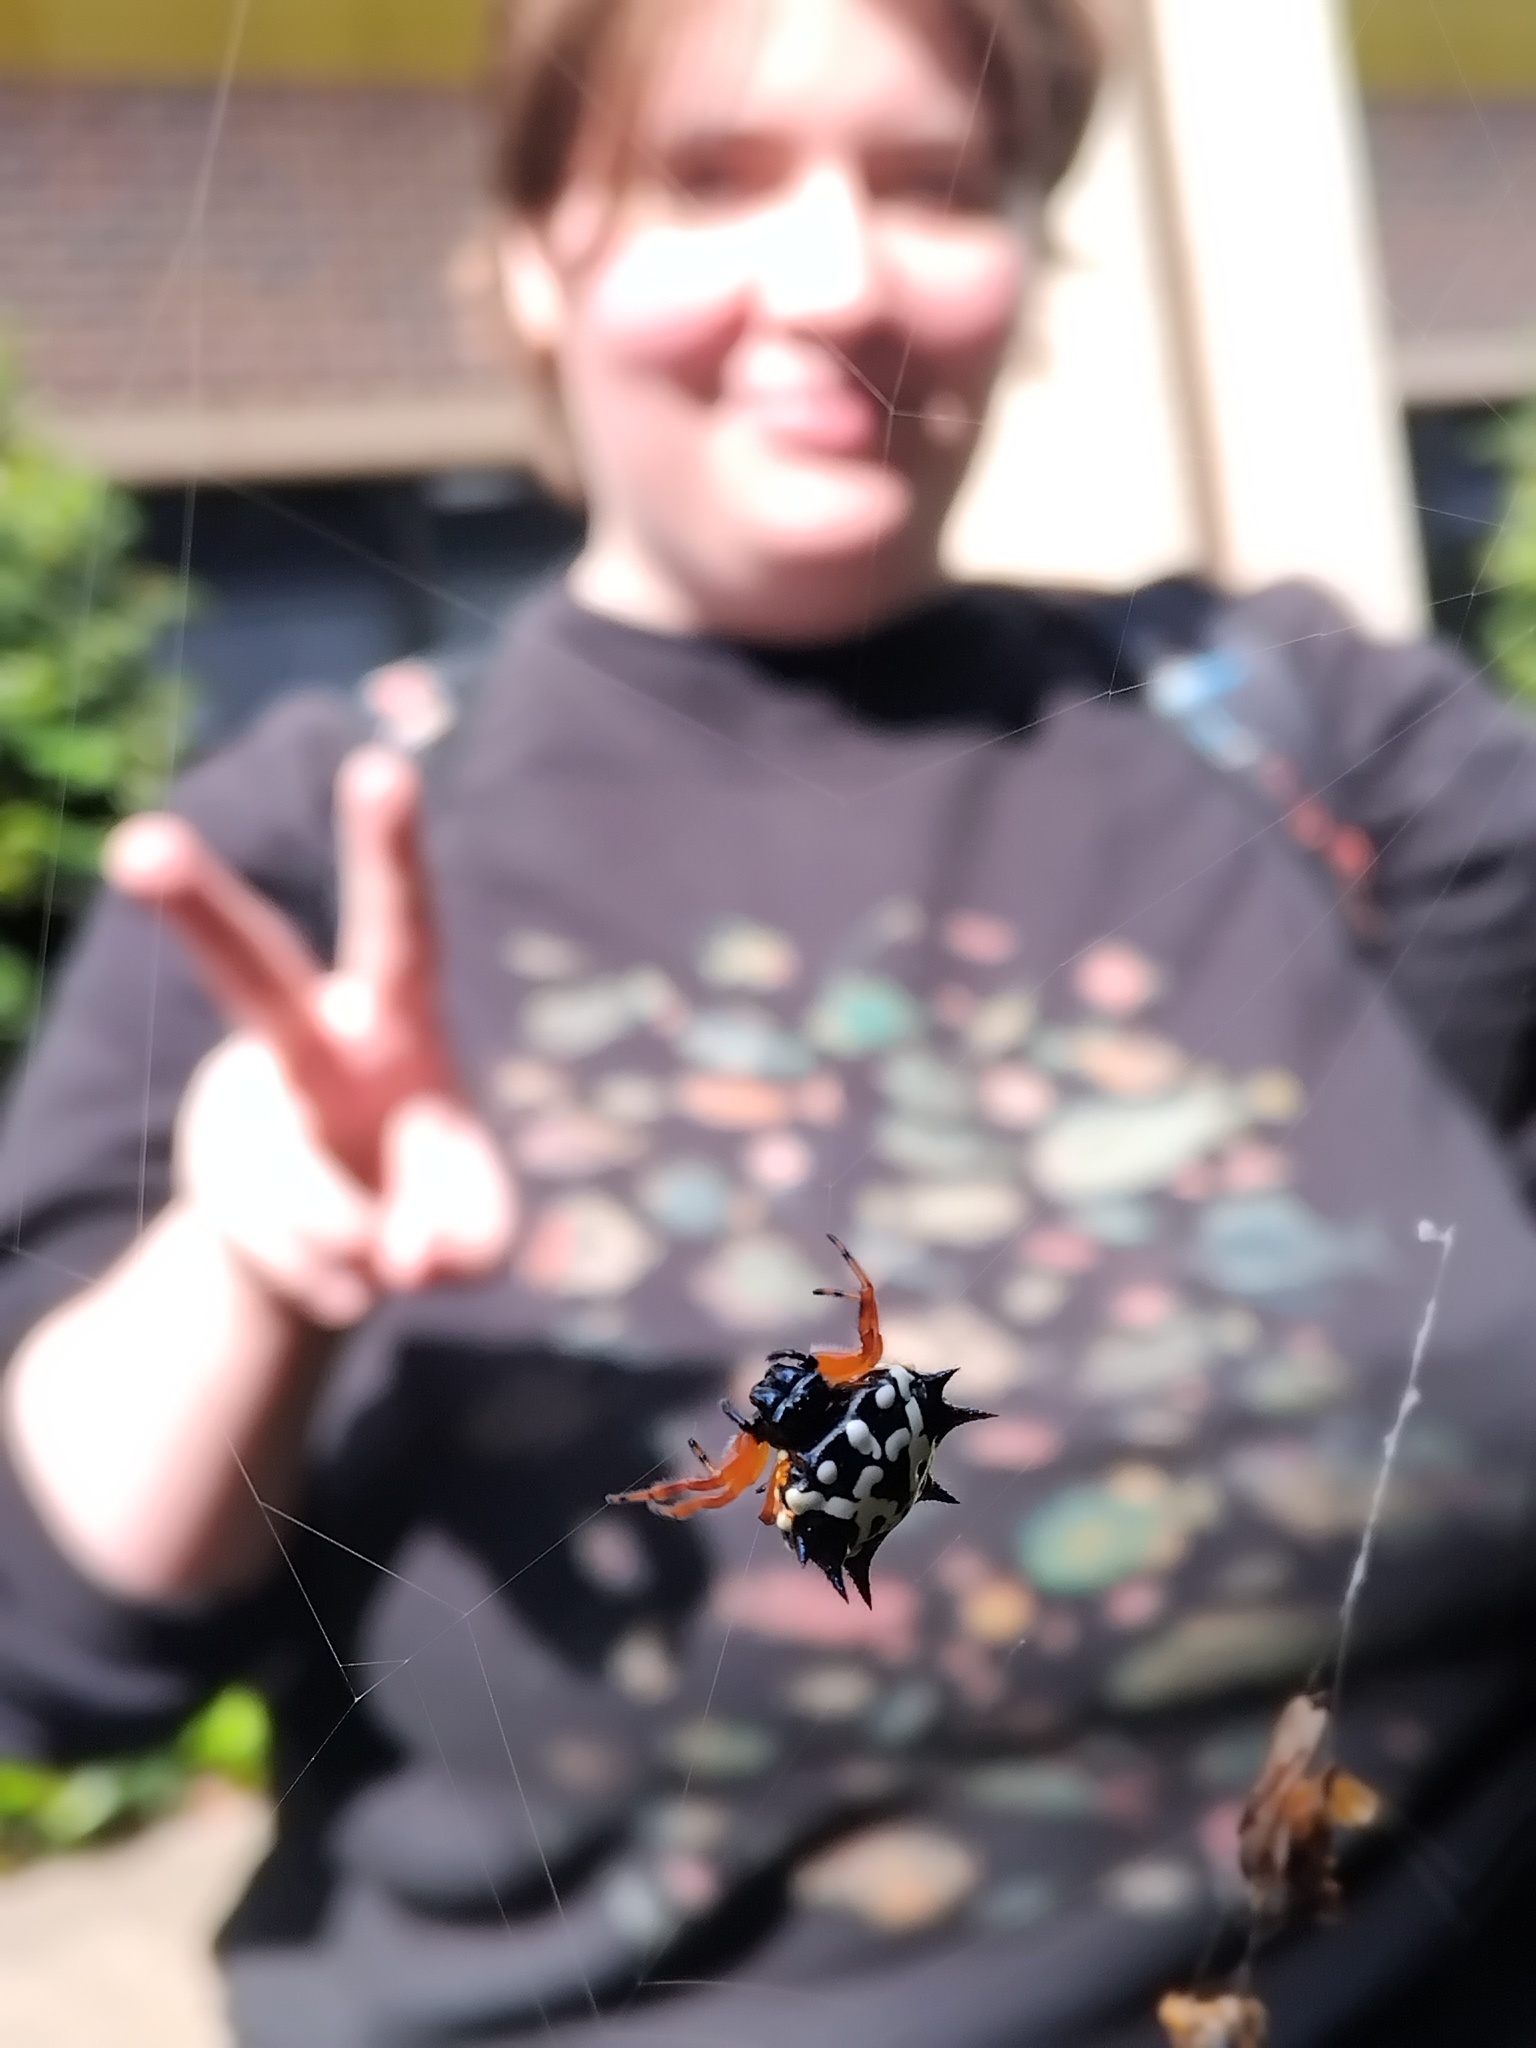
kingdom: Animalia
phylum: Arthropoda
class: Arachnida
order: Araneae
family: Araneidae
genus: Austracantha
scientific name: Austracantha minax
